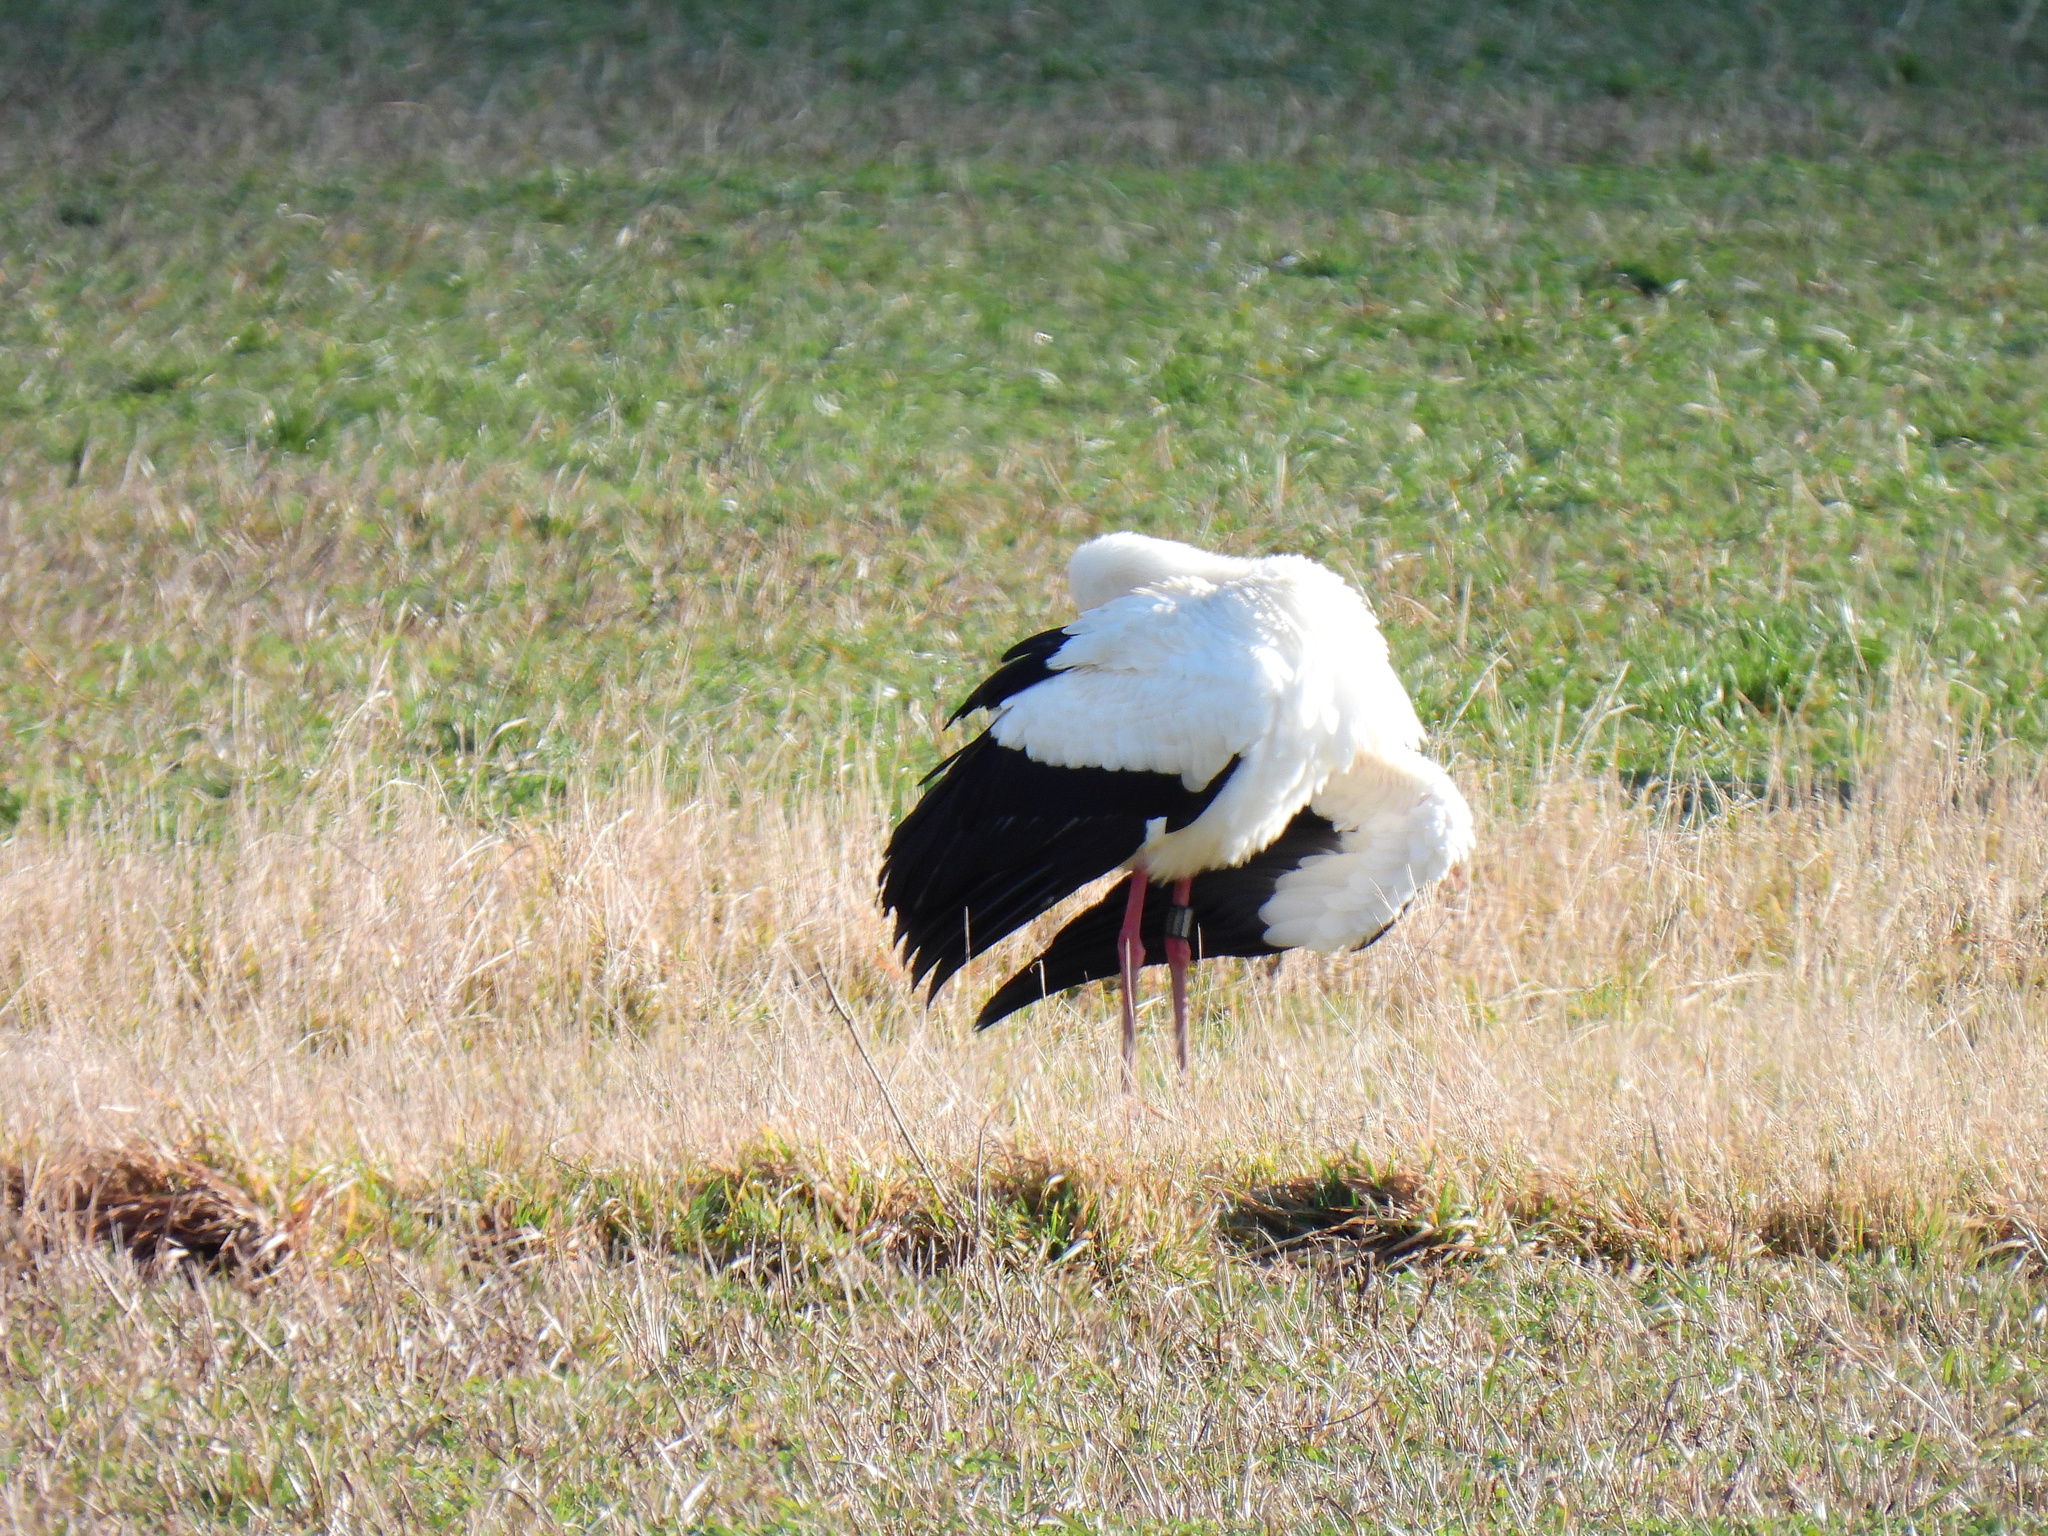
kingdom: Animalia
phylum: Chordata
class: Aves
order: Ciconiiformes
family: Ciconiidae
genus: Ciconia
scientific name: Ciconia ciconia
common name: White stork
